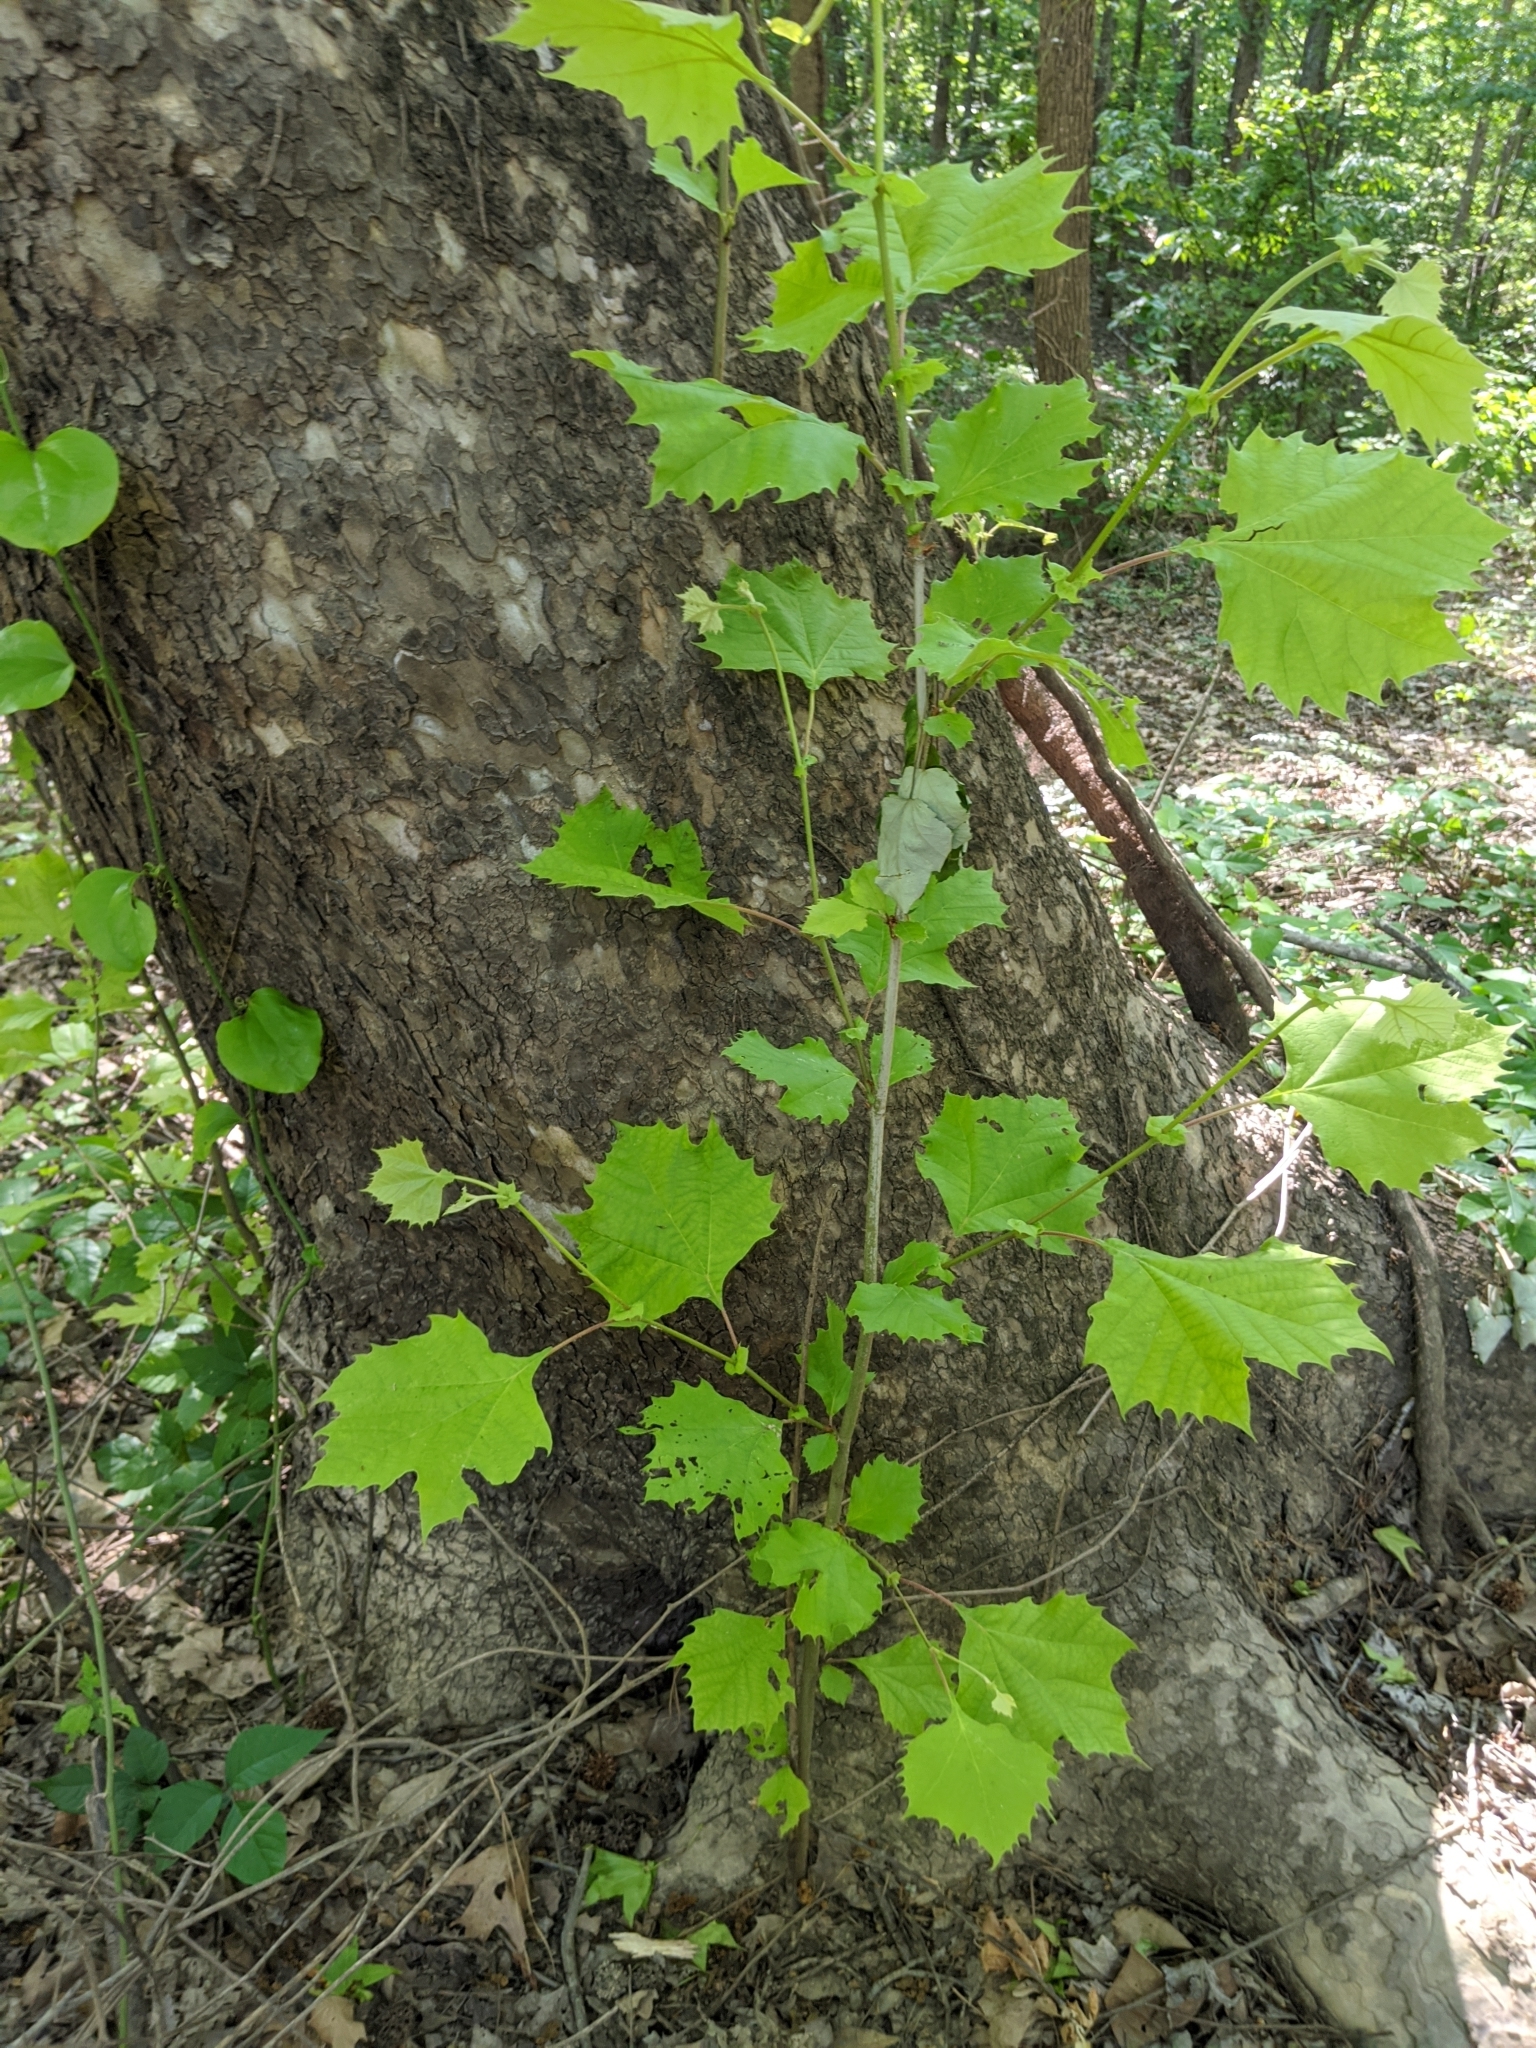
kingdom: Plantae
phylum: Tracheophyta
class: Magnoliopsida
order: Proteales
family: Platanaceae
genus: Platanus
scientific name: Platanus occidentalis
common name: American sycamore
